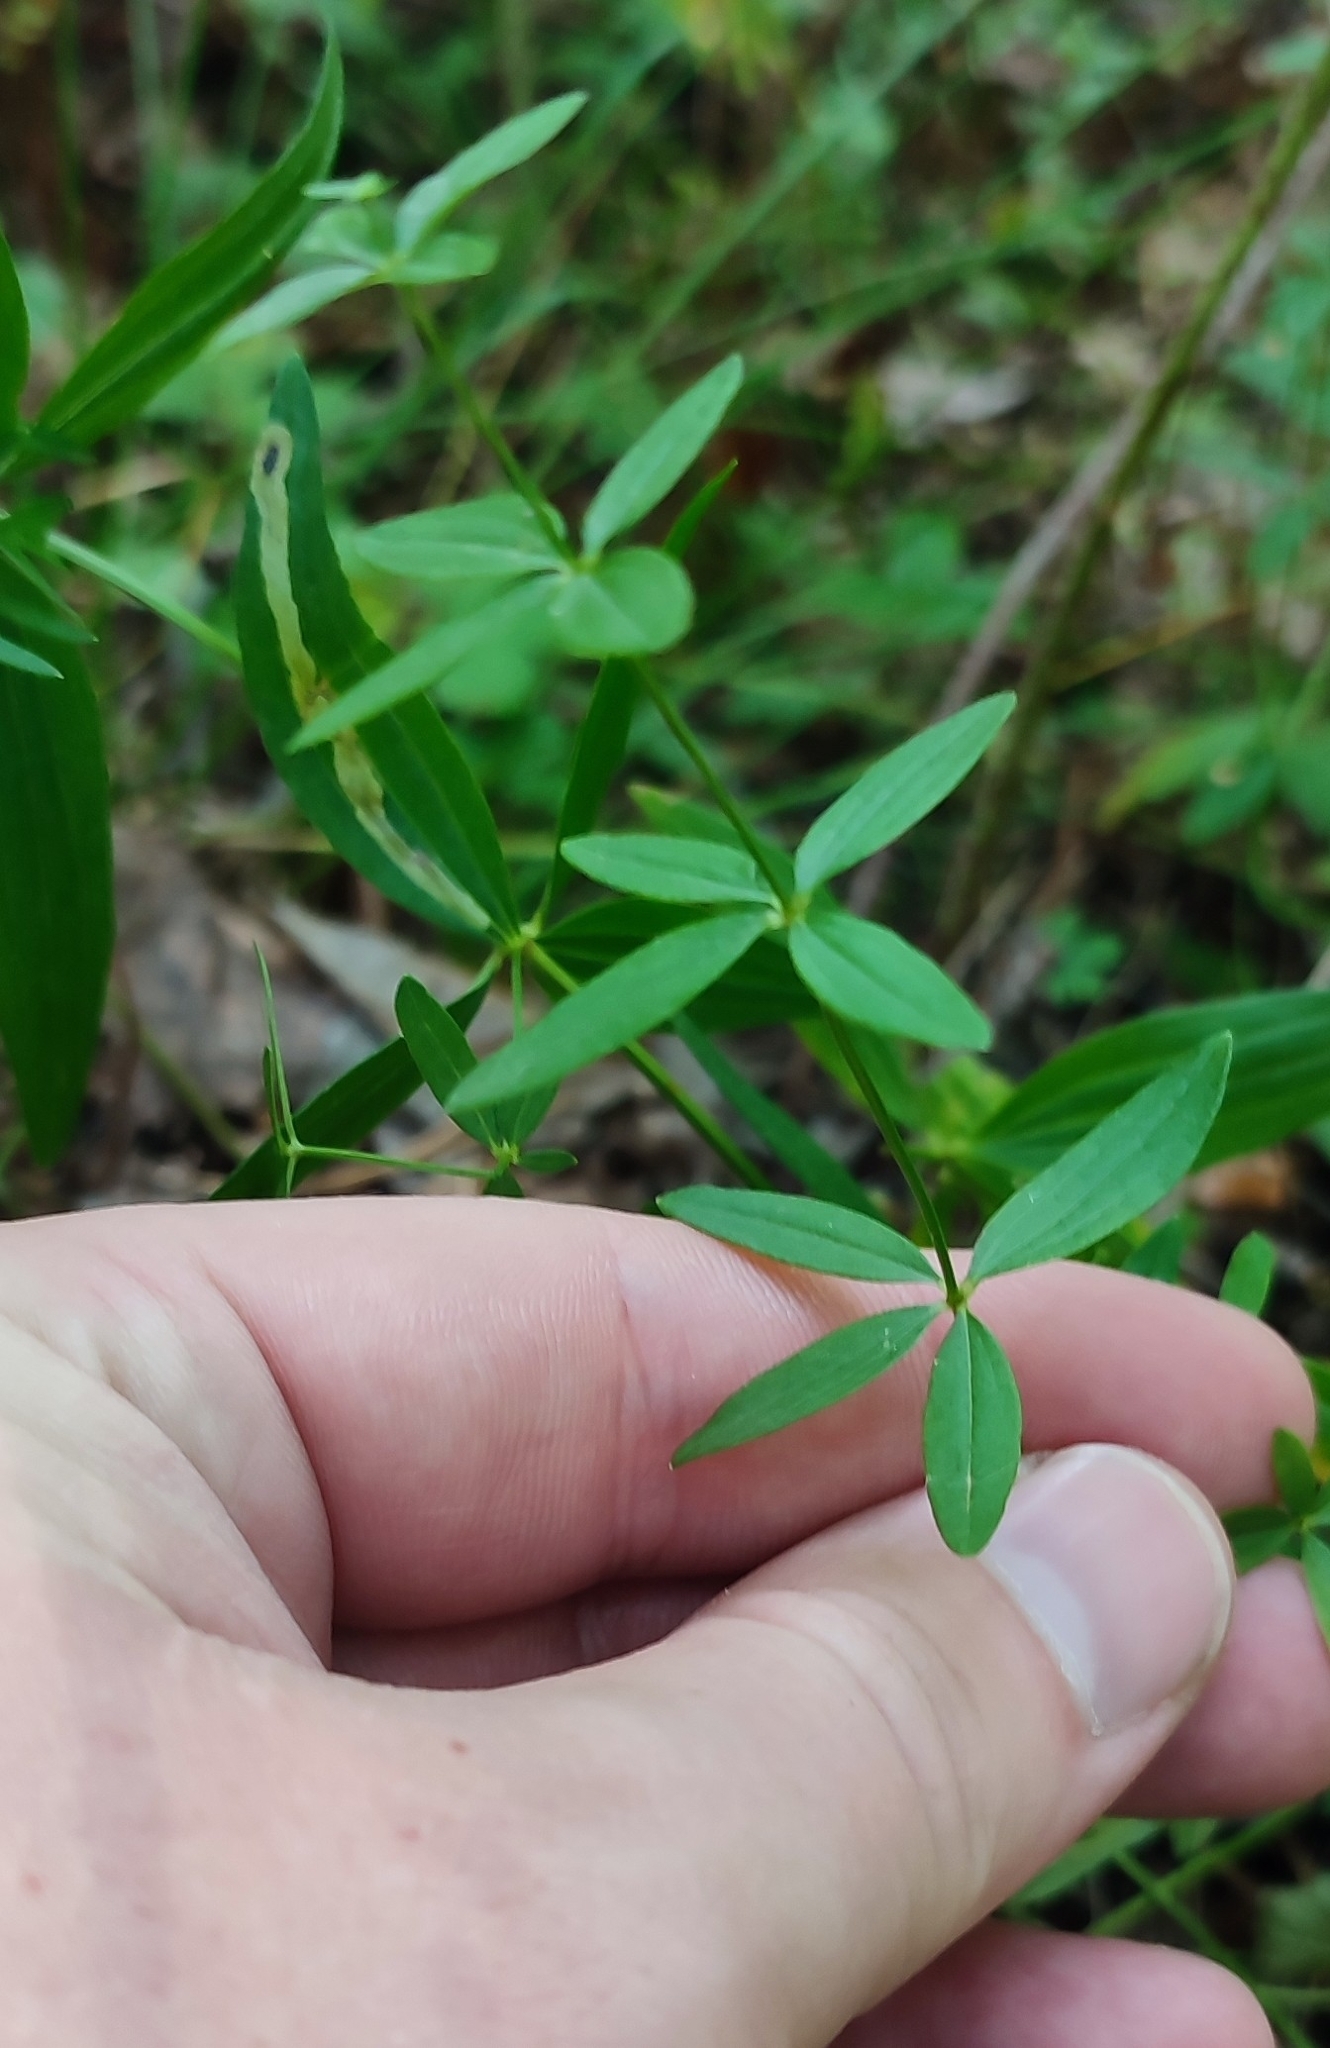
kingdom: Plantae
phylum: Tracheophyta
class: Magnoliopsida
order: Gentianales
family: Rubiaceae
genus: Galium
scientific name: Galium boreale
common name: Northern bedstraw
